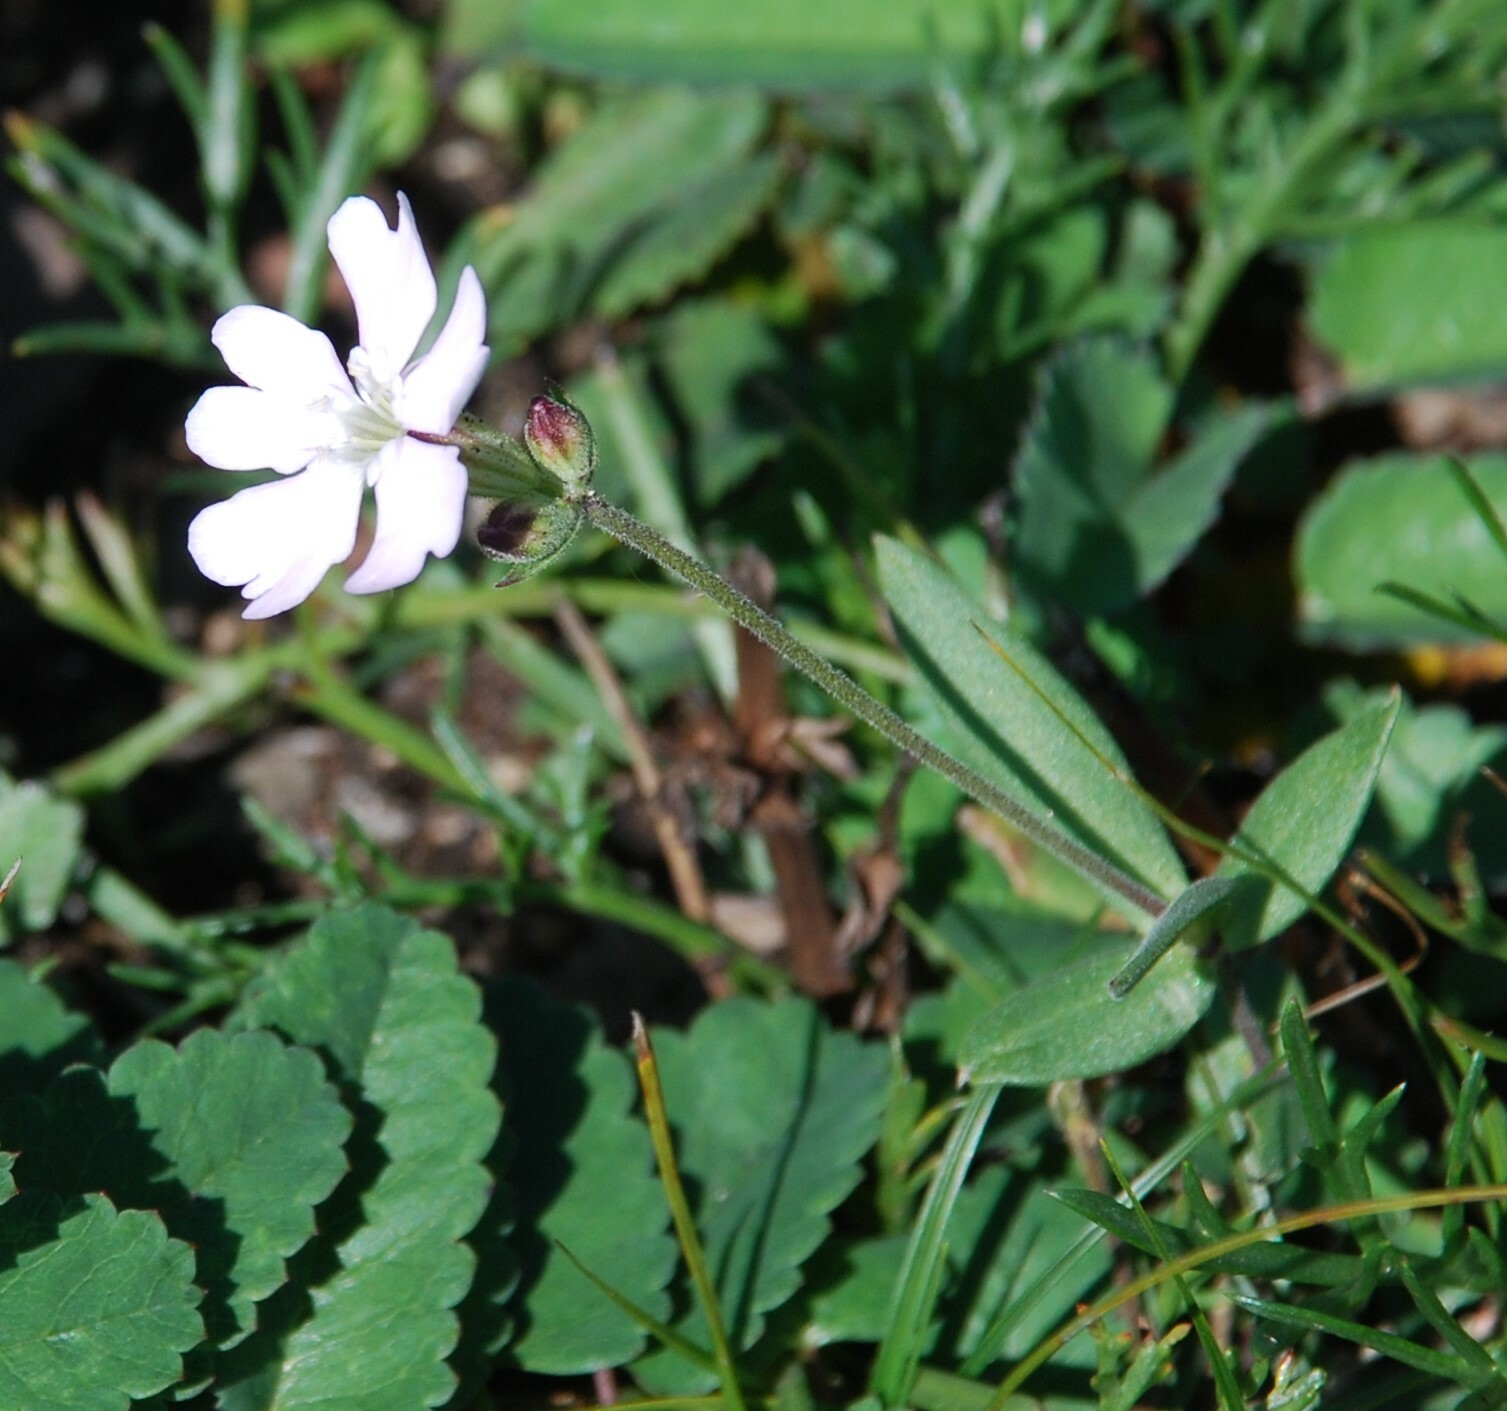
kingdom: Plantae
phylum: Tracheophyta
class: Magnoliopsida
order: Caryophyllales
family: Caryophyllaceae
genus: Silene
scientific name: Silene orientalimongolica
